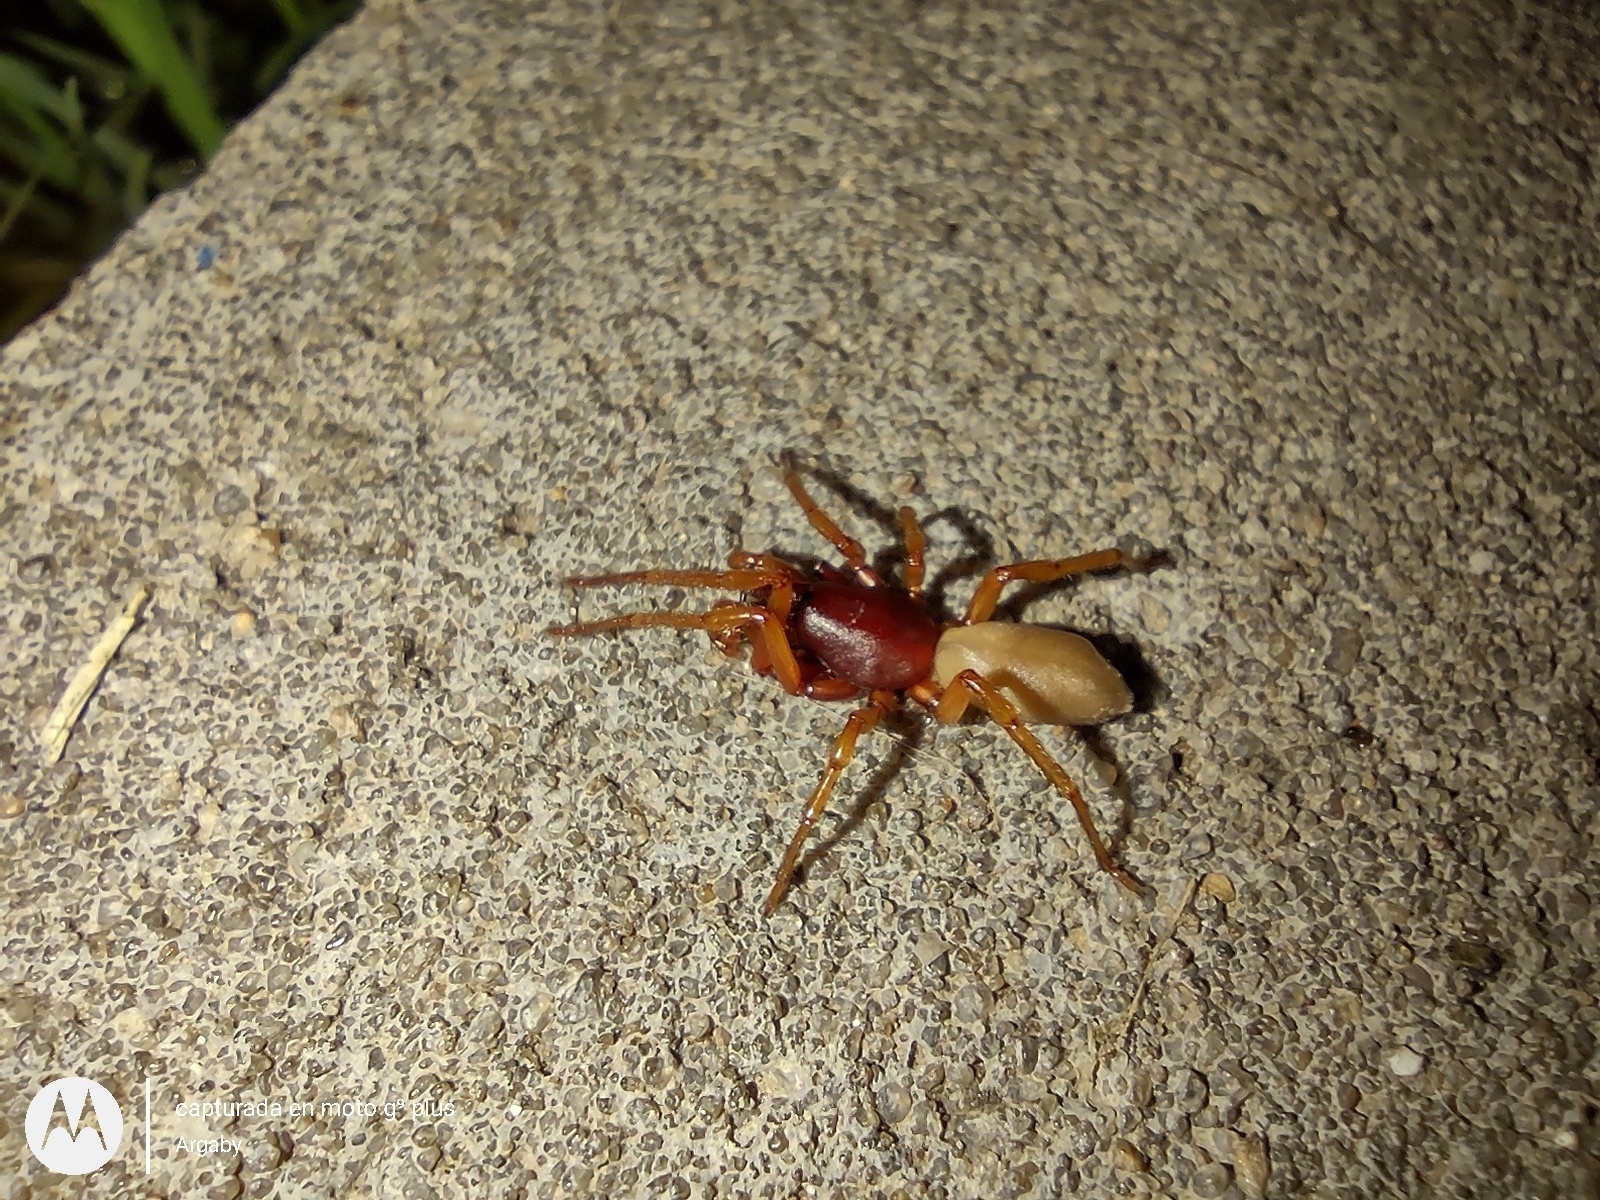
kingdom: Animalia
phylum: Arthropoda
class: Arachnida
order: Araneae
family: Dysderidae
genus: Dysdera
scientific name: Dysdera crocata
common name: Woodlouse spider
